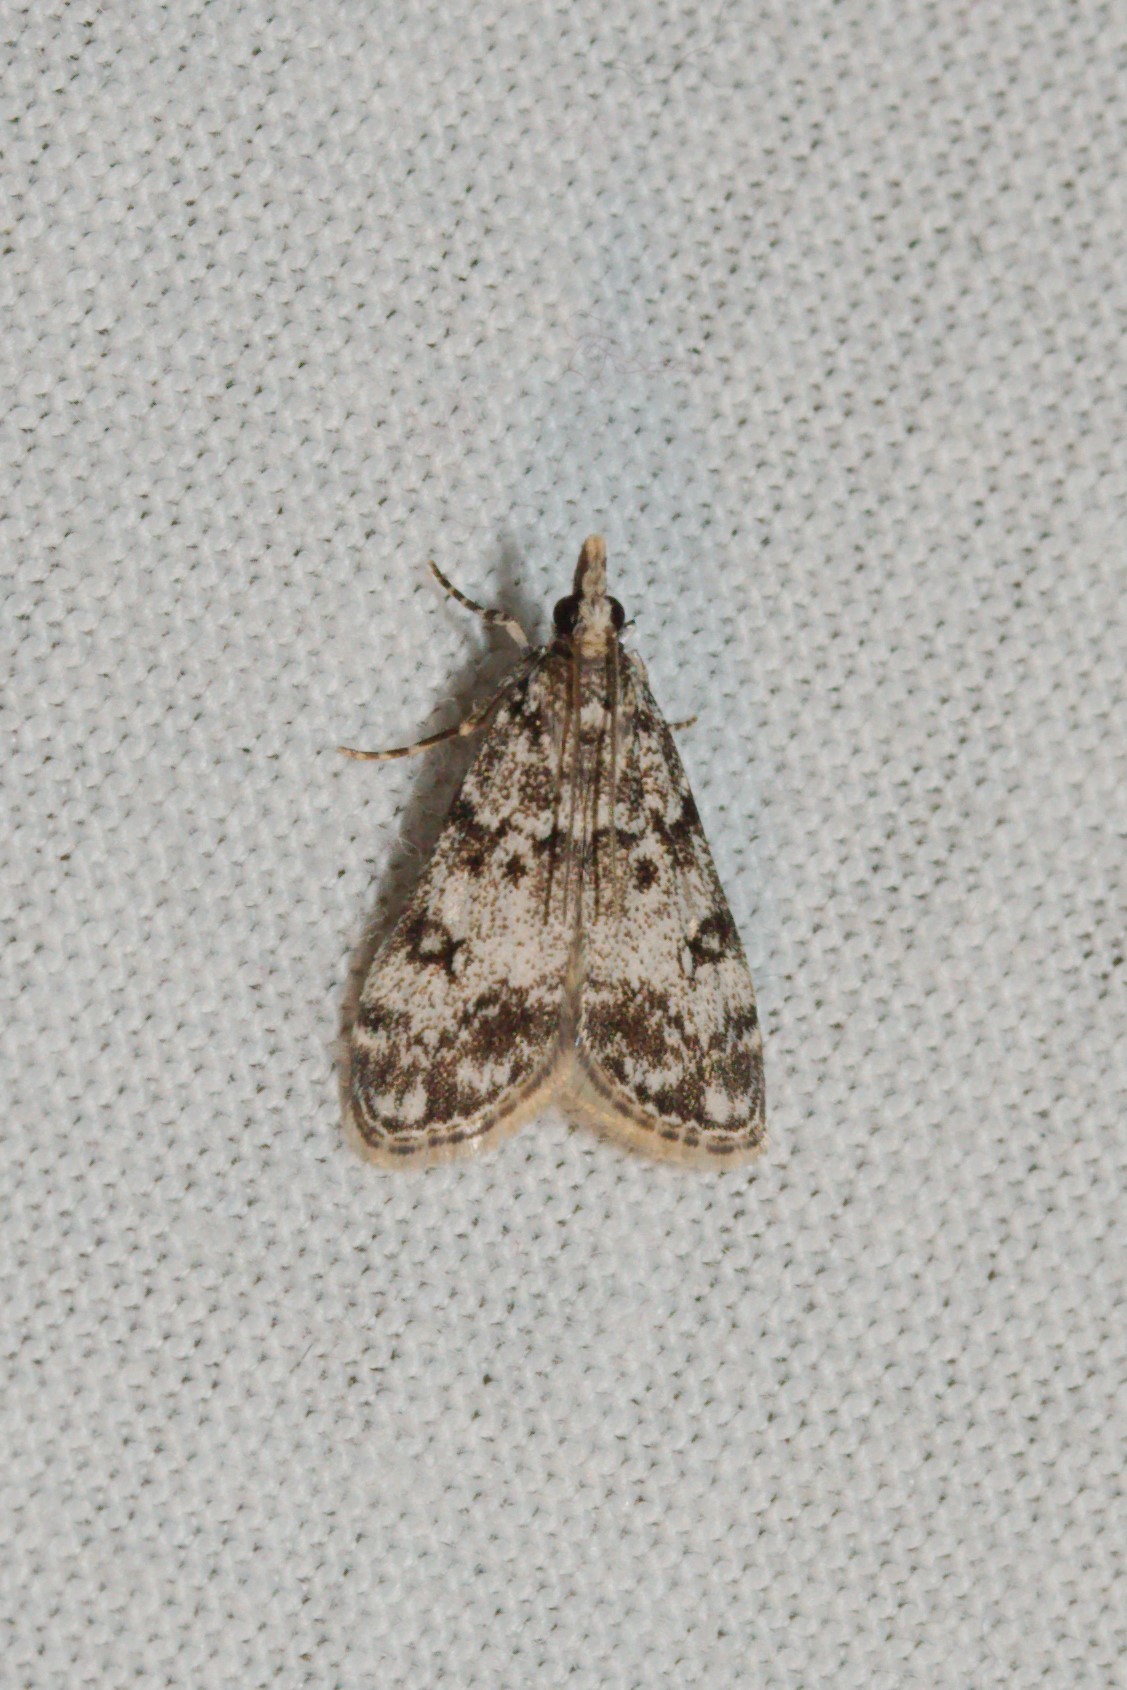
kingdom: Animalia
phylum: Arthropoda
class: Insecta
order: Lepidoptera
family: Crambidae
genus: Eudonia
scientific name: Eudonia lacustrata
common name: Little grey
